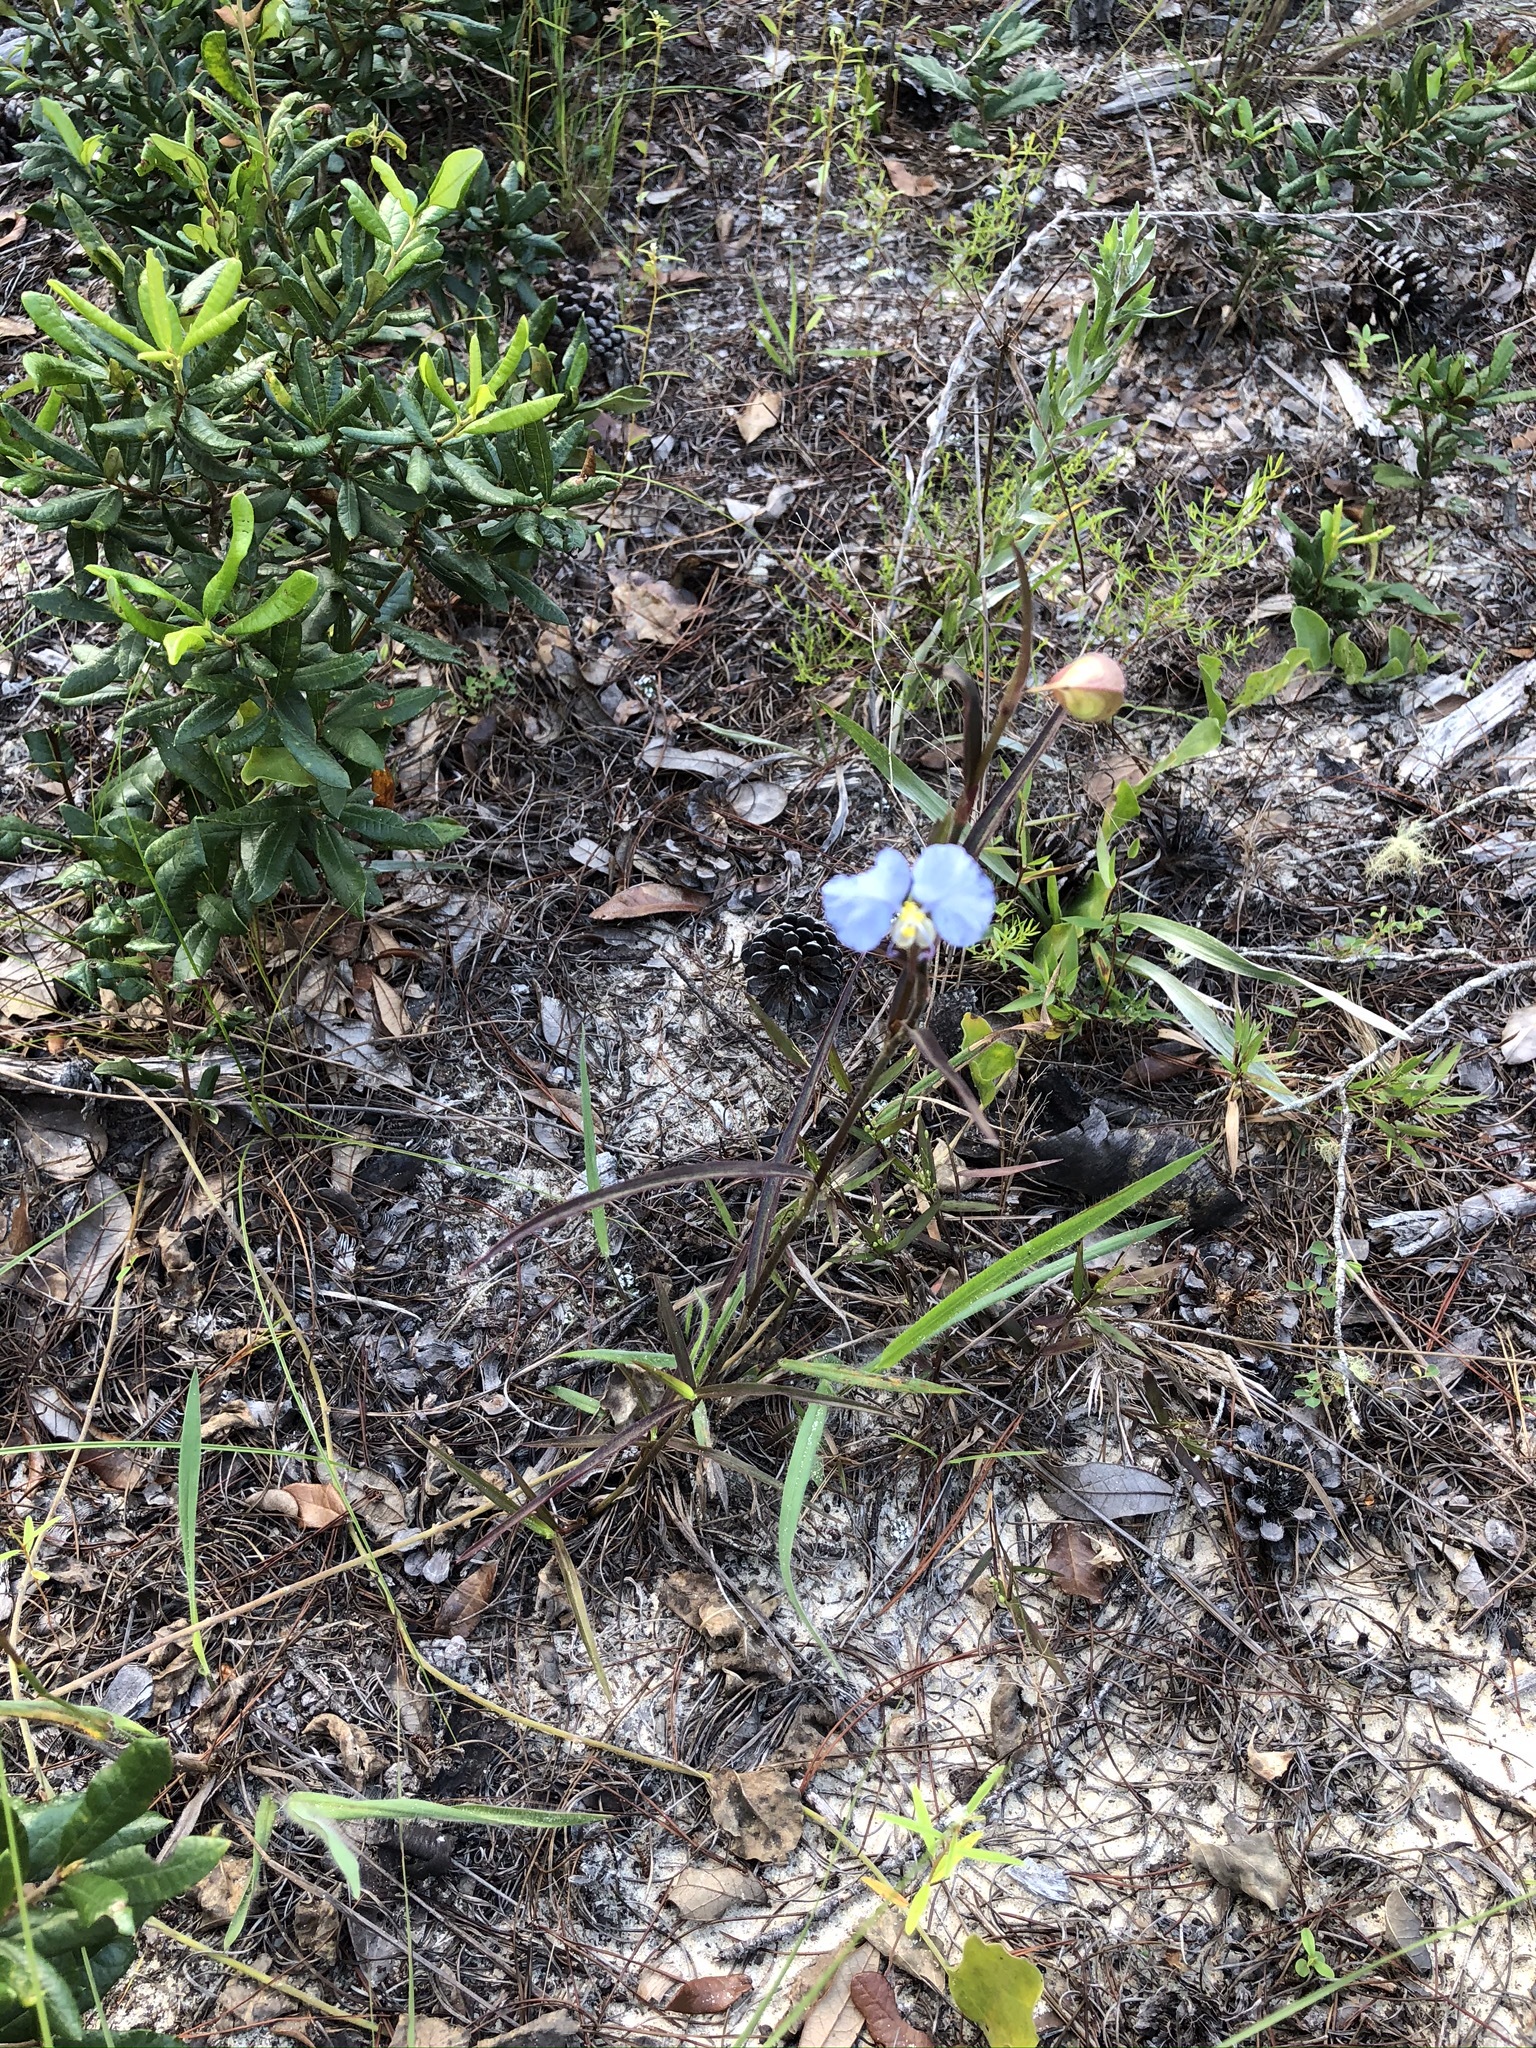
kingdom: Plantae
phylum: Tracheophyta
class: Liliopsida
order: Commelinales
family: Commelinaceae
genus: Commelina
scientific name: Commelina erecta
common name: Blousel blommetjie
